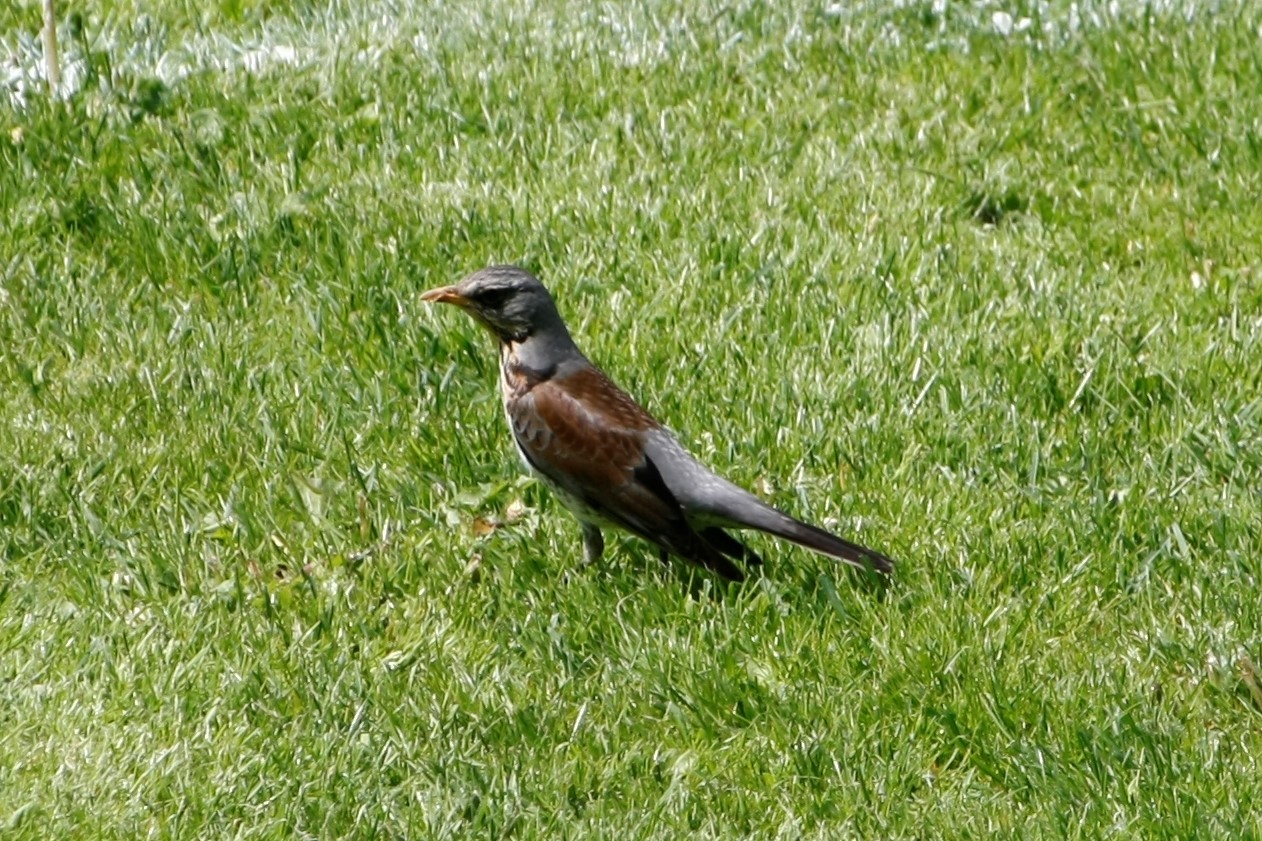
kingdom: Animalia
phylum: Chordata
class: Aves
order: Passeriformes
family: Turdidae
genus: Turdus
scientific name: Turdus pilaris
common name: Fieldfare
